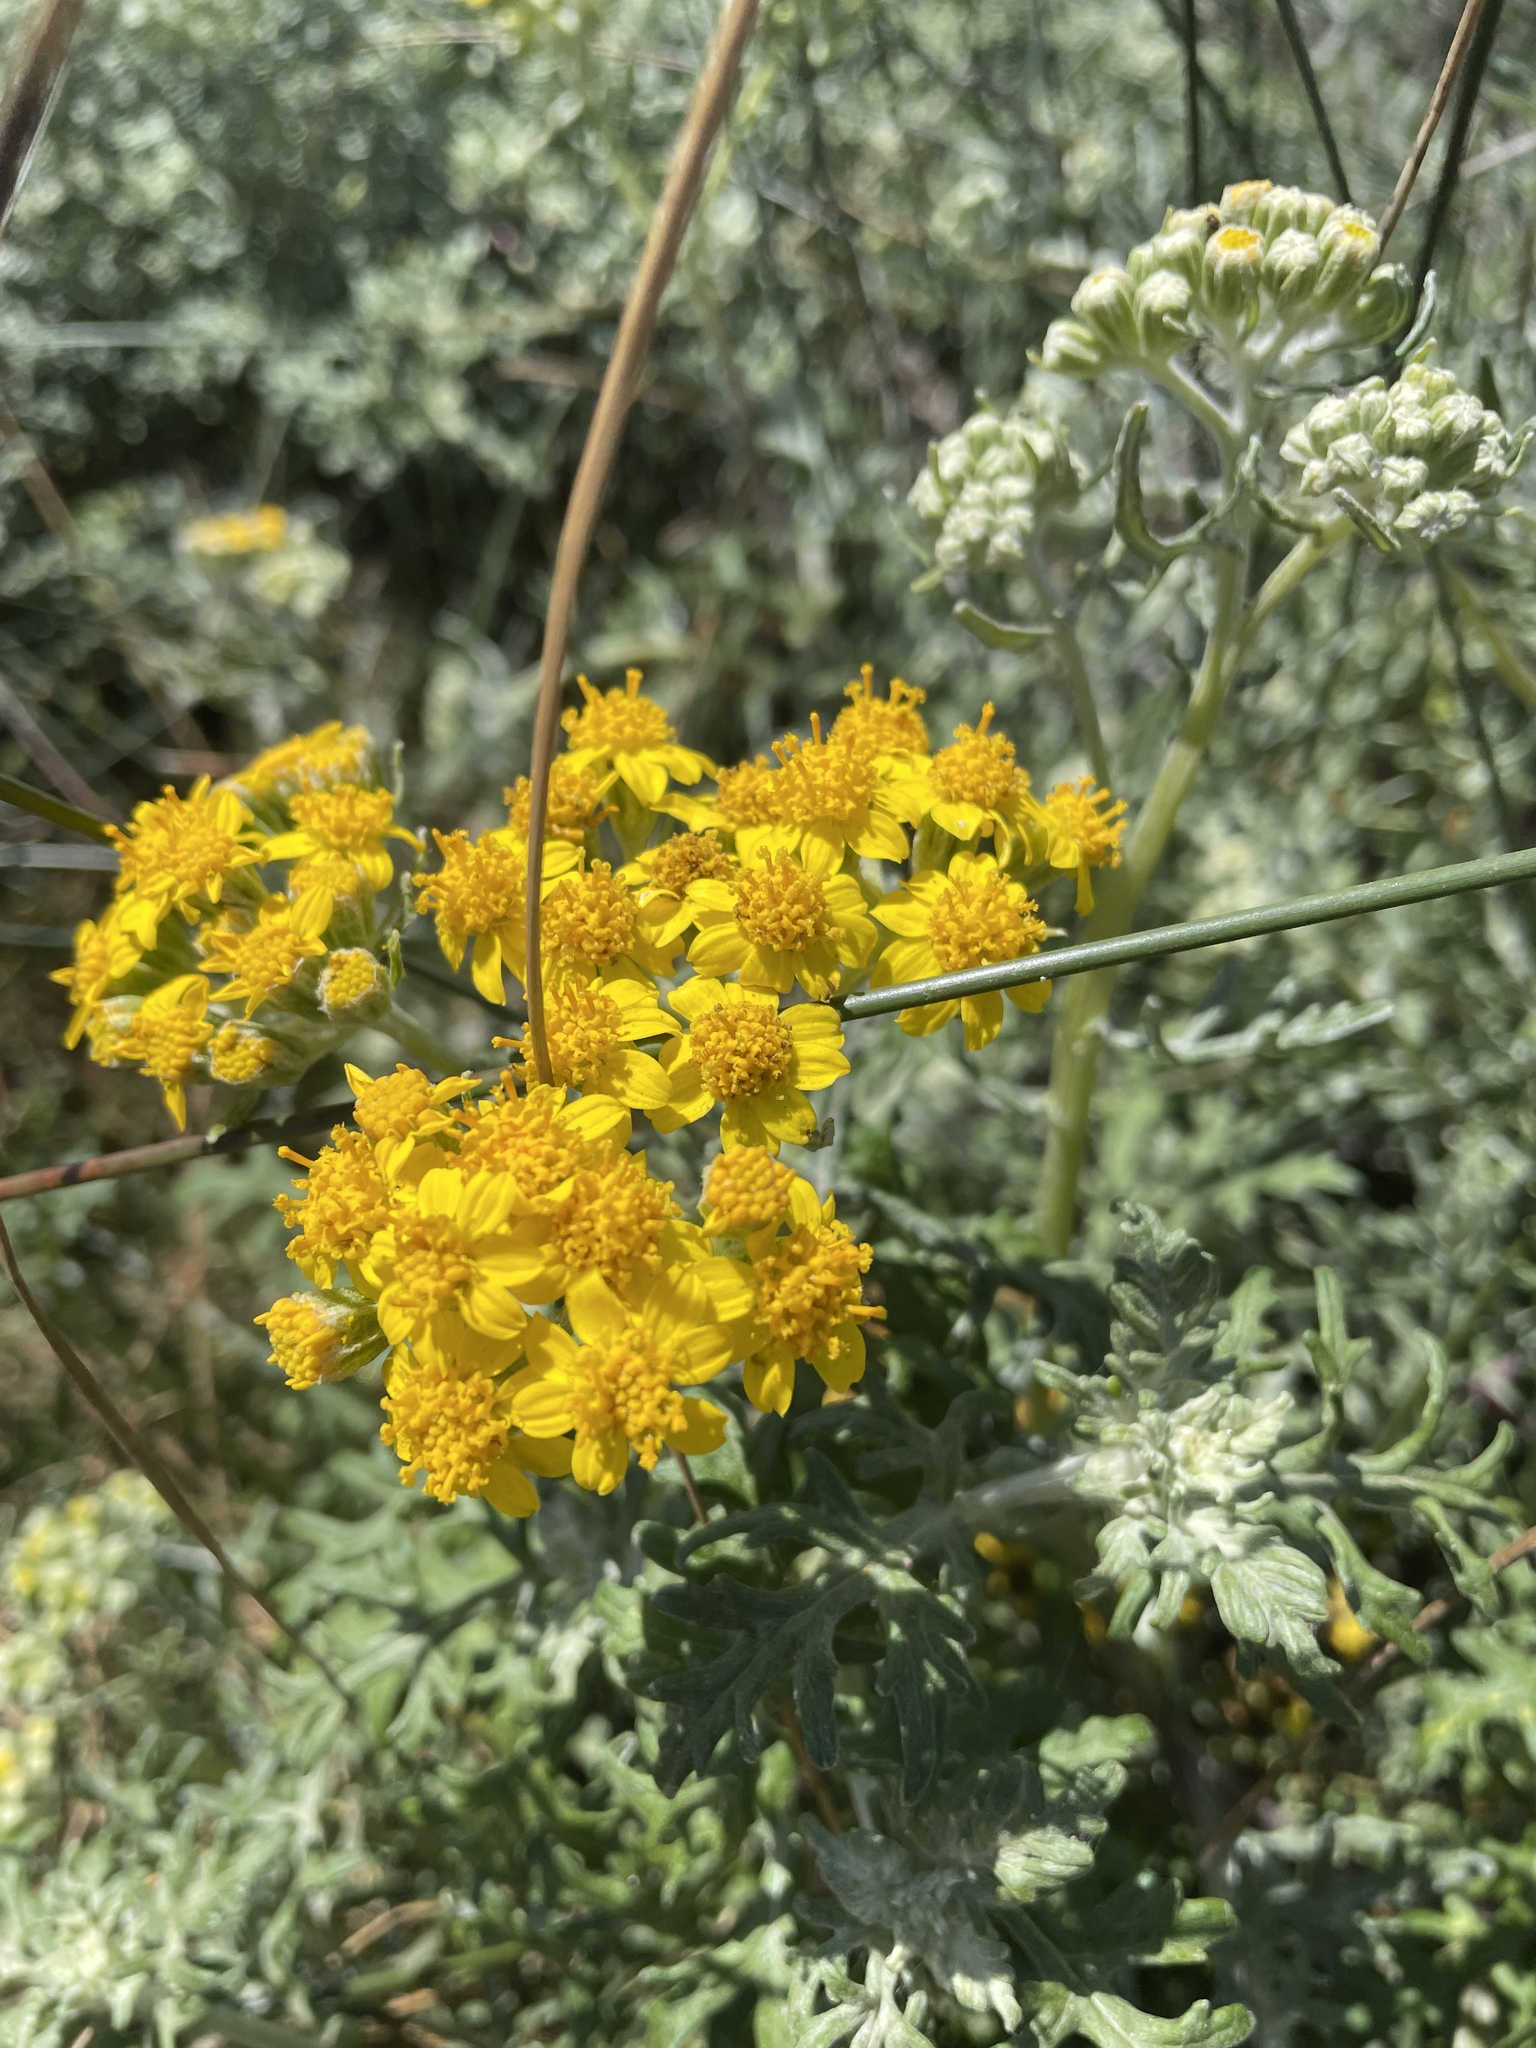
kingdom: Plantae
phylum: Tracheophyta
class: Magnoliopsida
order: Asterales
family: Asteraceae
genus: Eriophyllum
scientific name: Eriophyllum staechadifolium
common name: Lizardtail
